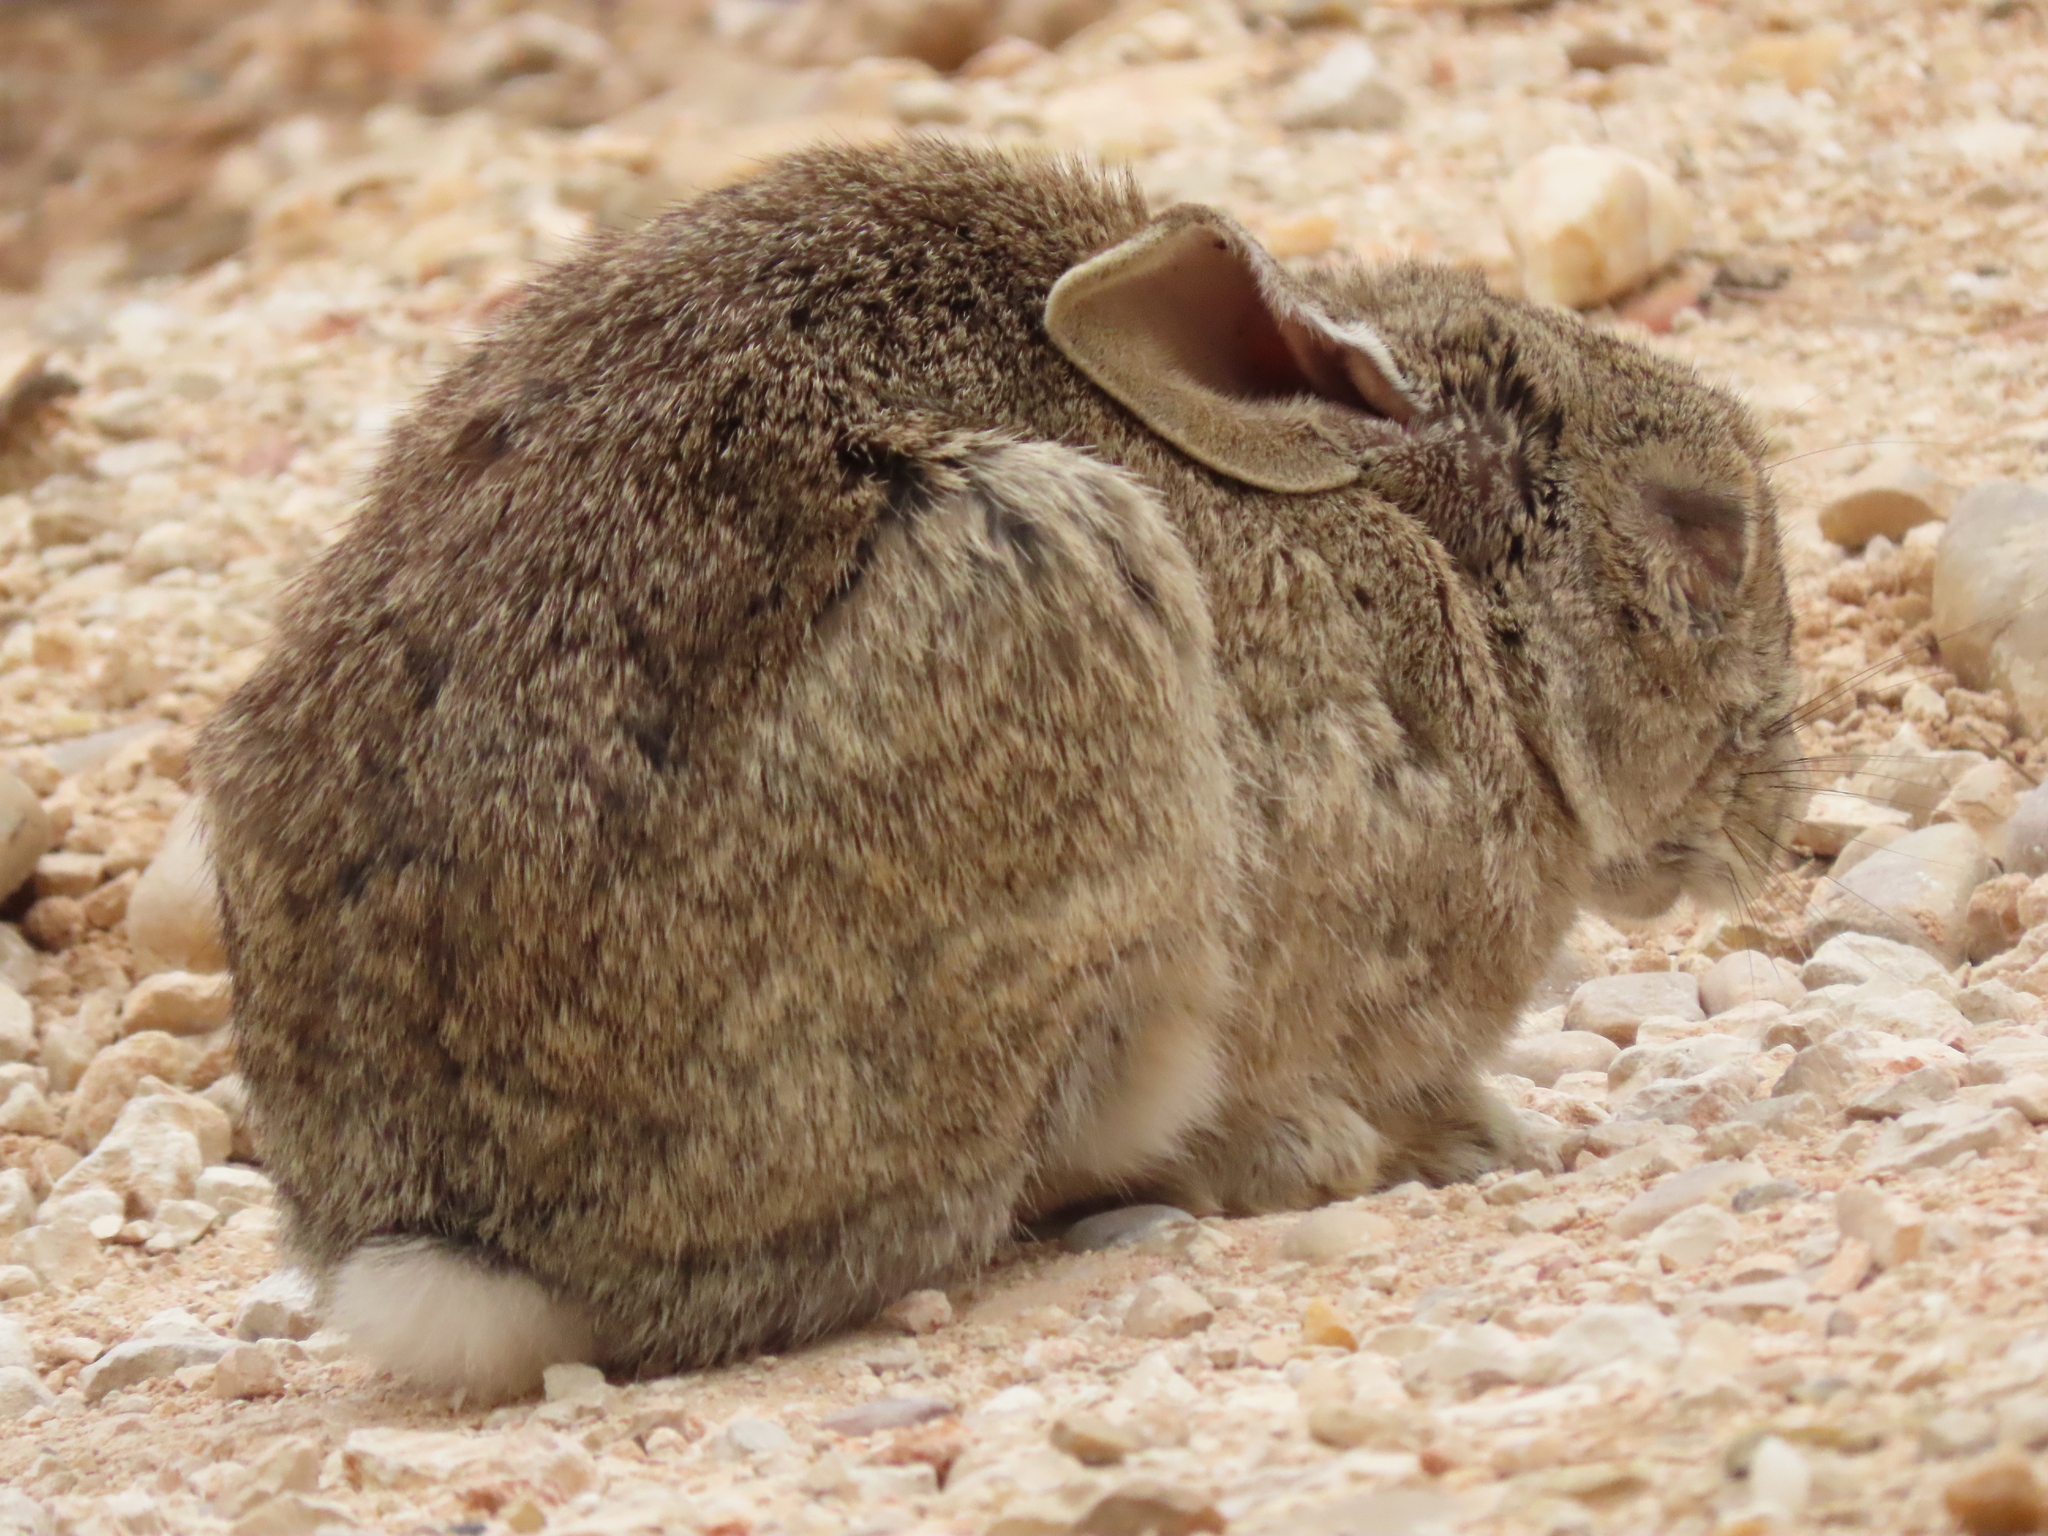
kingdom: Viruses
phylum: Nucleocytoviricota
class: Pokkesviricetes
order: Chitovirales
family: Poxviridae
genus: Leporipoxvirus
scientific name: Leporipoxvirus Myxoma virus
